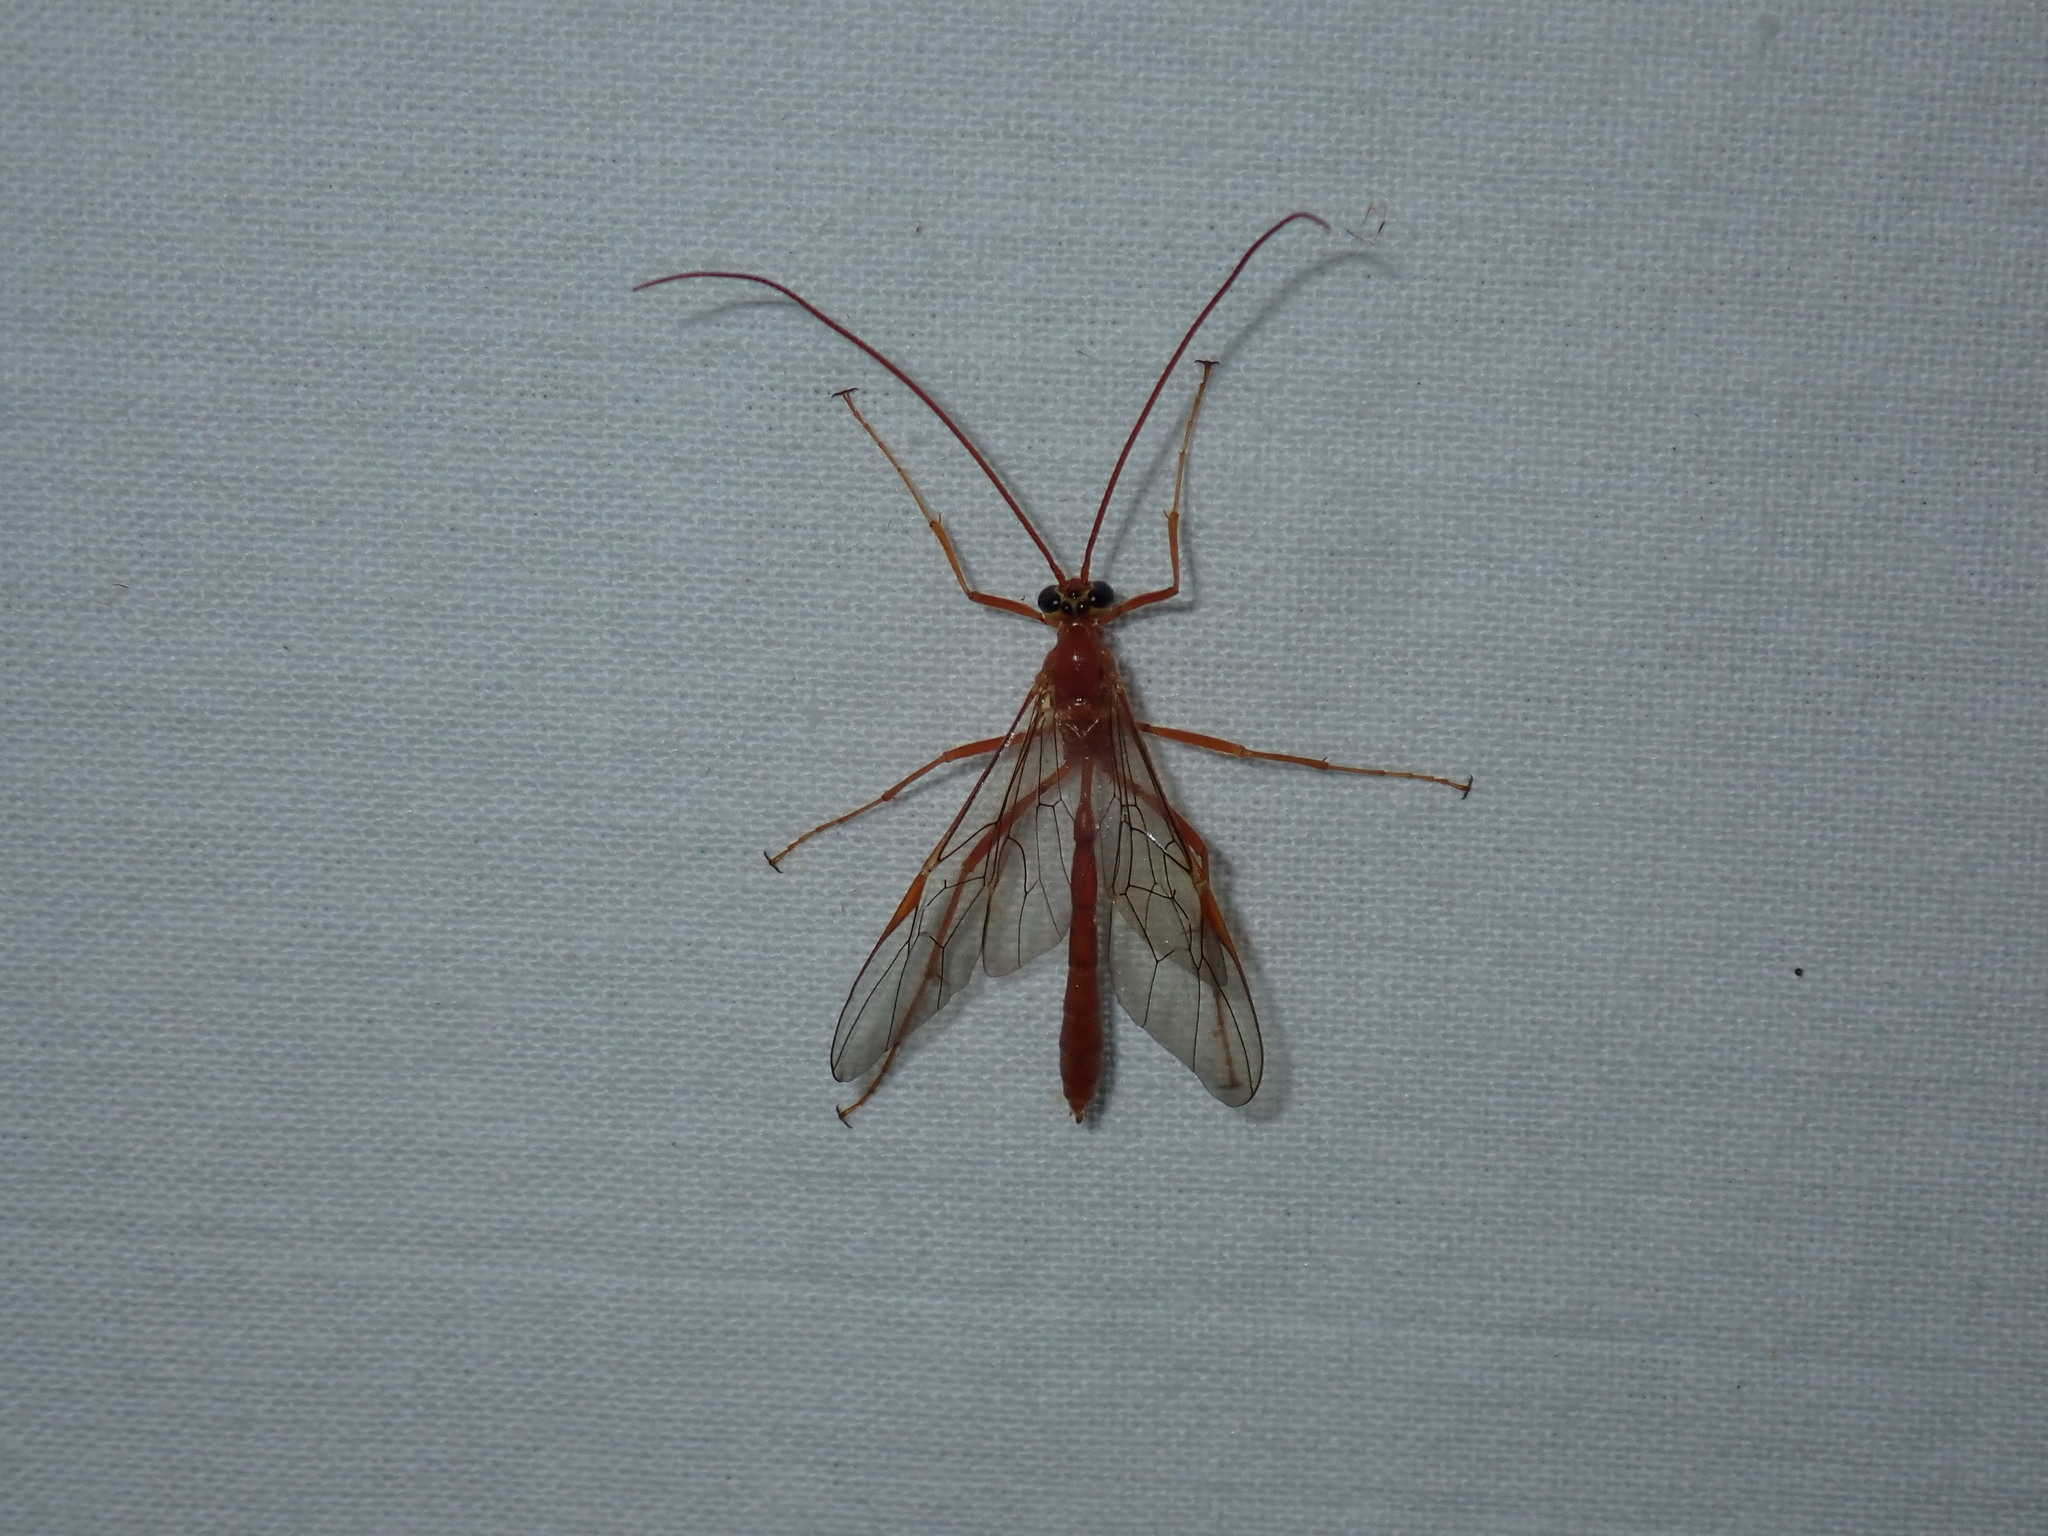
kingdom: Animalia
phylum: Arthropoda
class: Insecta
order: Hymenoptera
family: Ichneumonidae
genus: Ophion
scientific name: Ophion
